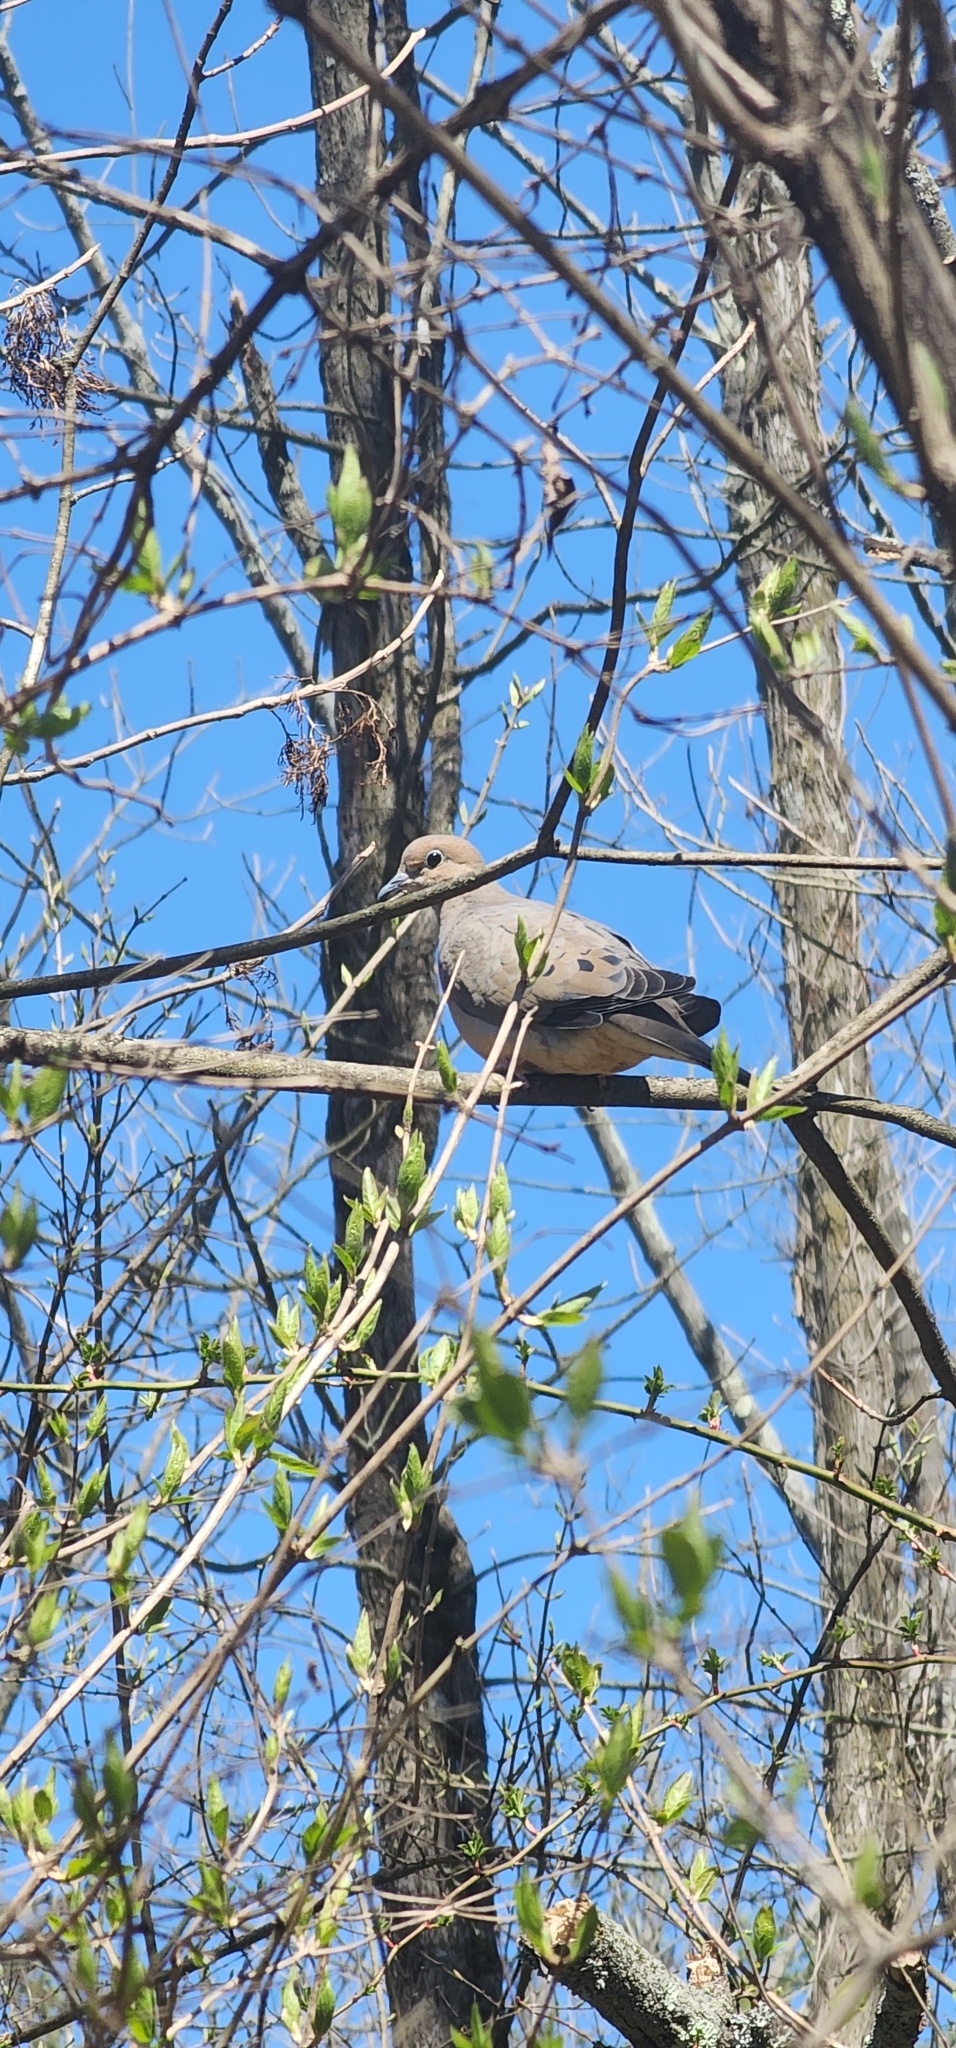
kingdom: Animalia
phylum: Chordata
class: Aves
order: Columbiformes
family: Columbidae
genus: Zenaida
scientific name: Zenaida macroura
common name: Mourning dove
